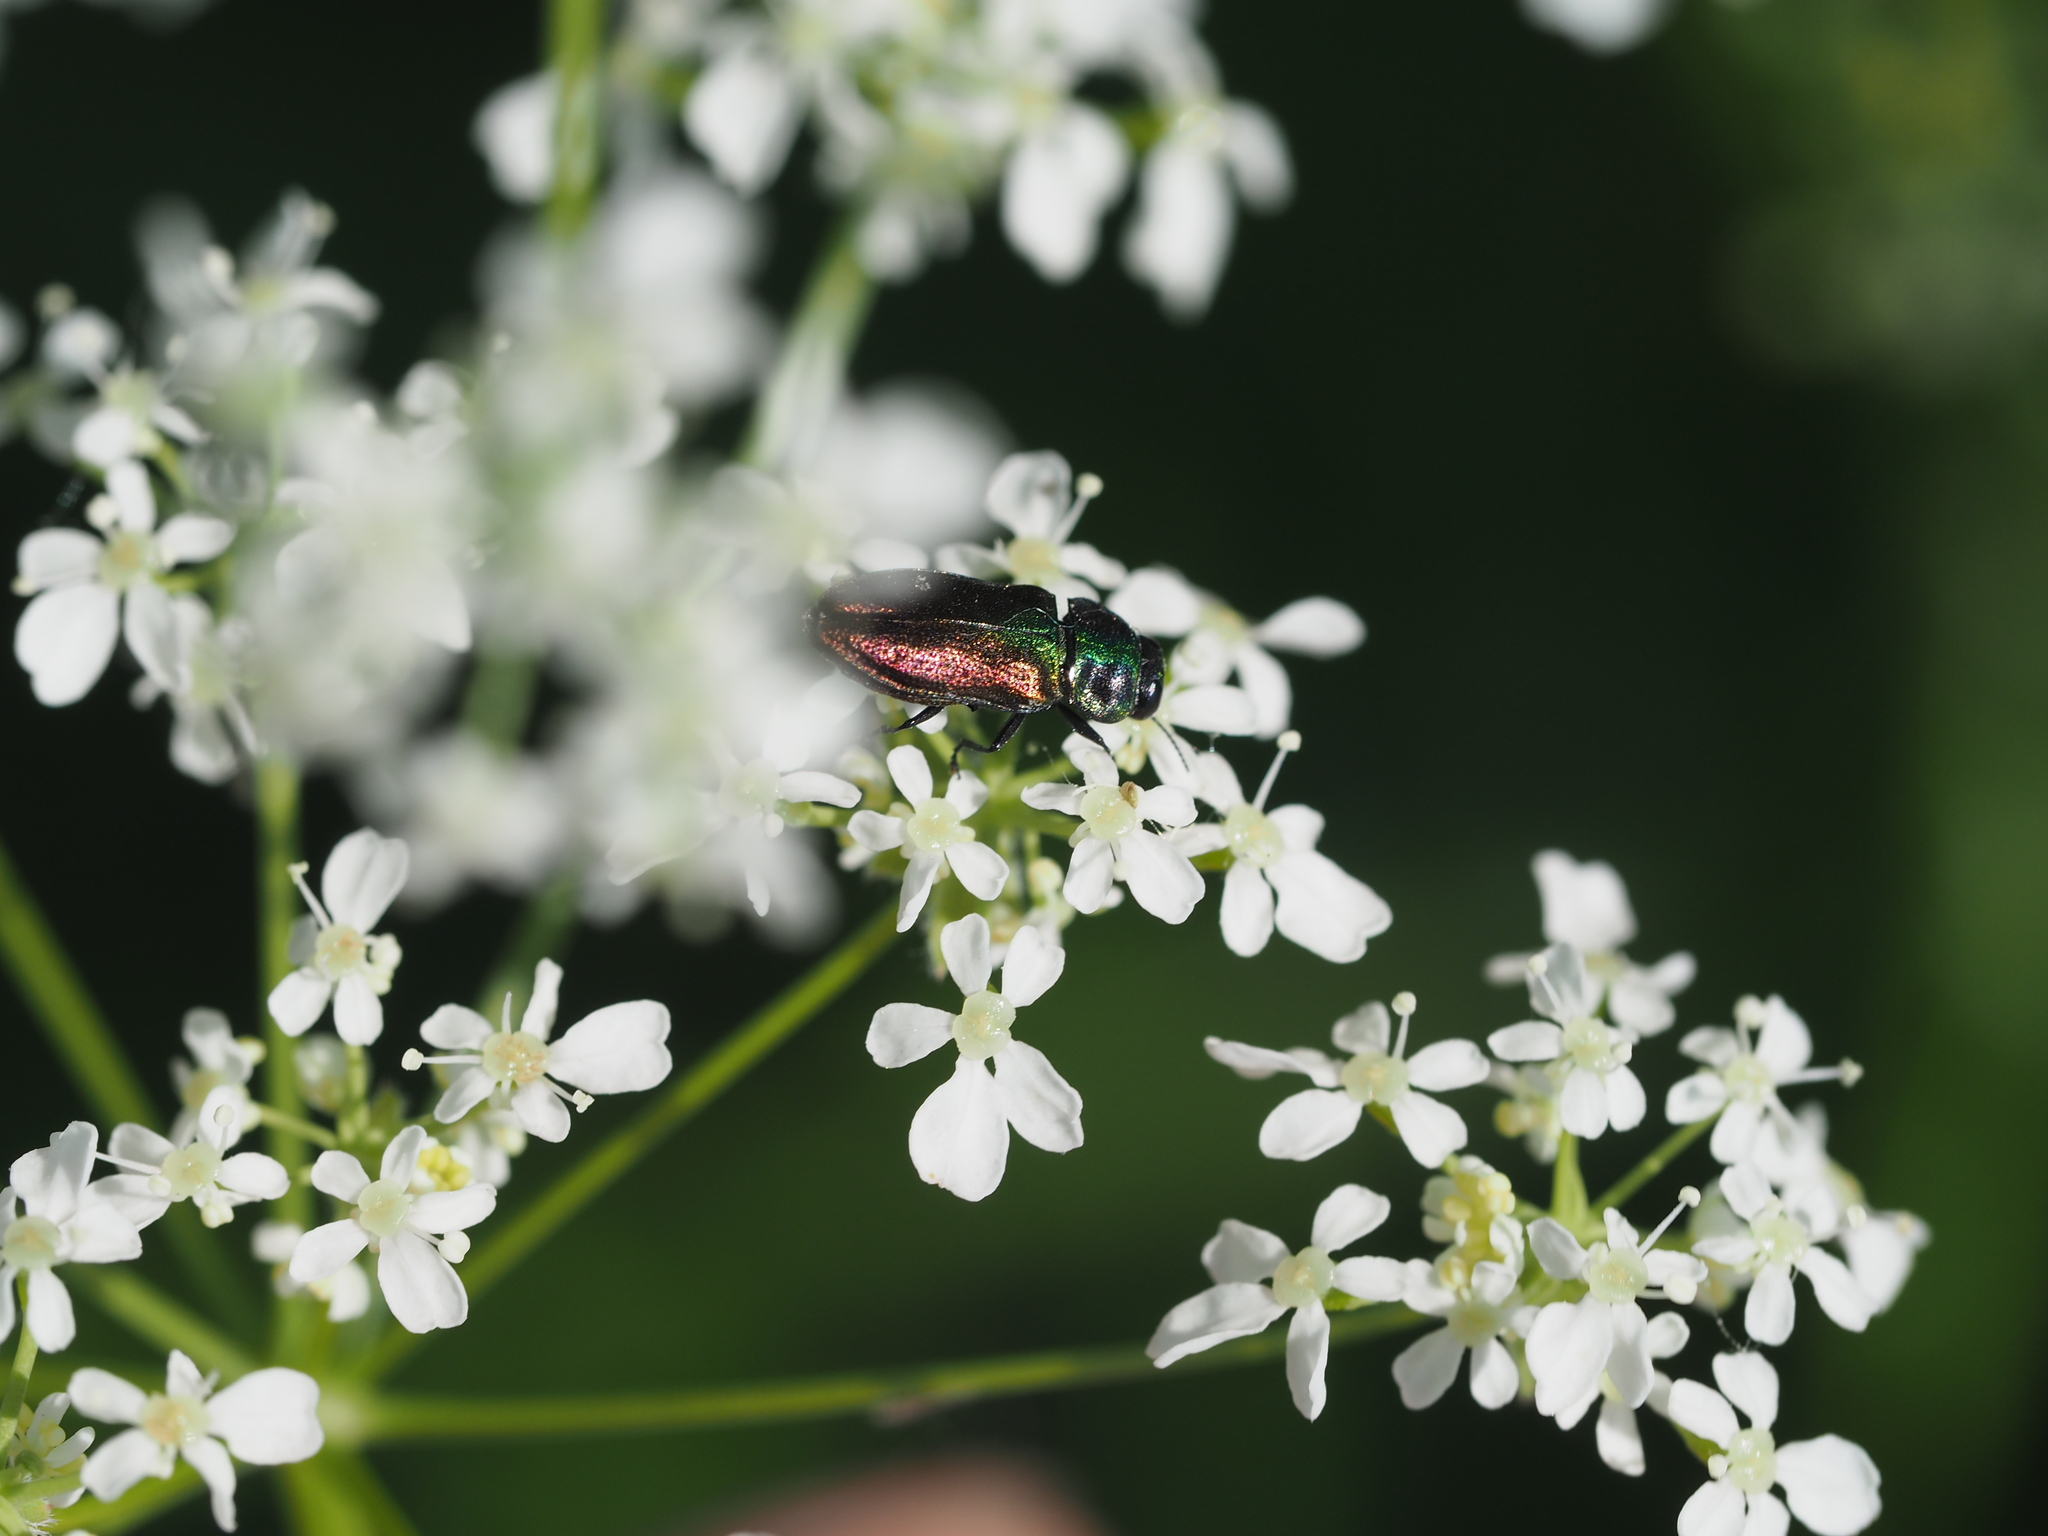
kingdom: Animalia
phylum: Arthropoda
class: Insecta
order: Coleoptera
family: Buprestidae
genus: Anthaxia
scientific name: Anthaxia podolica
